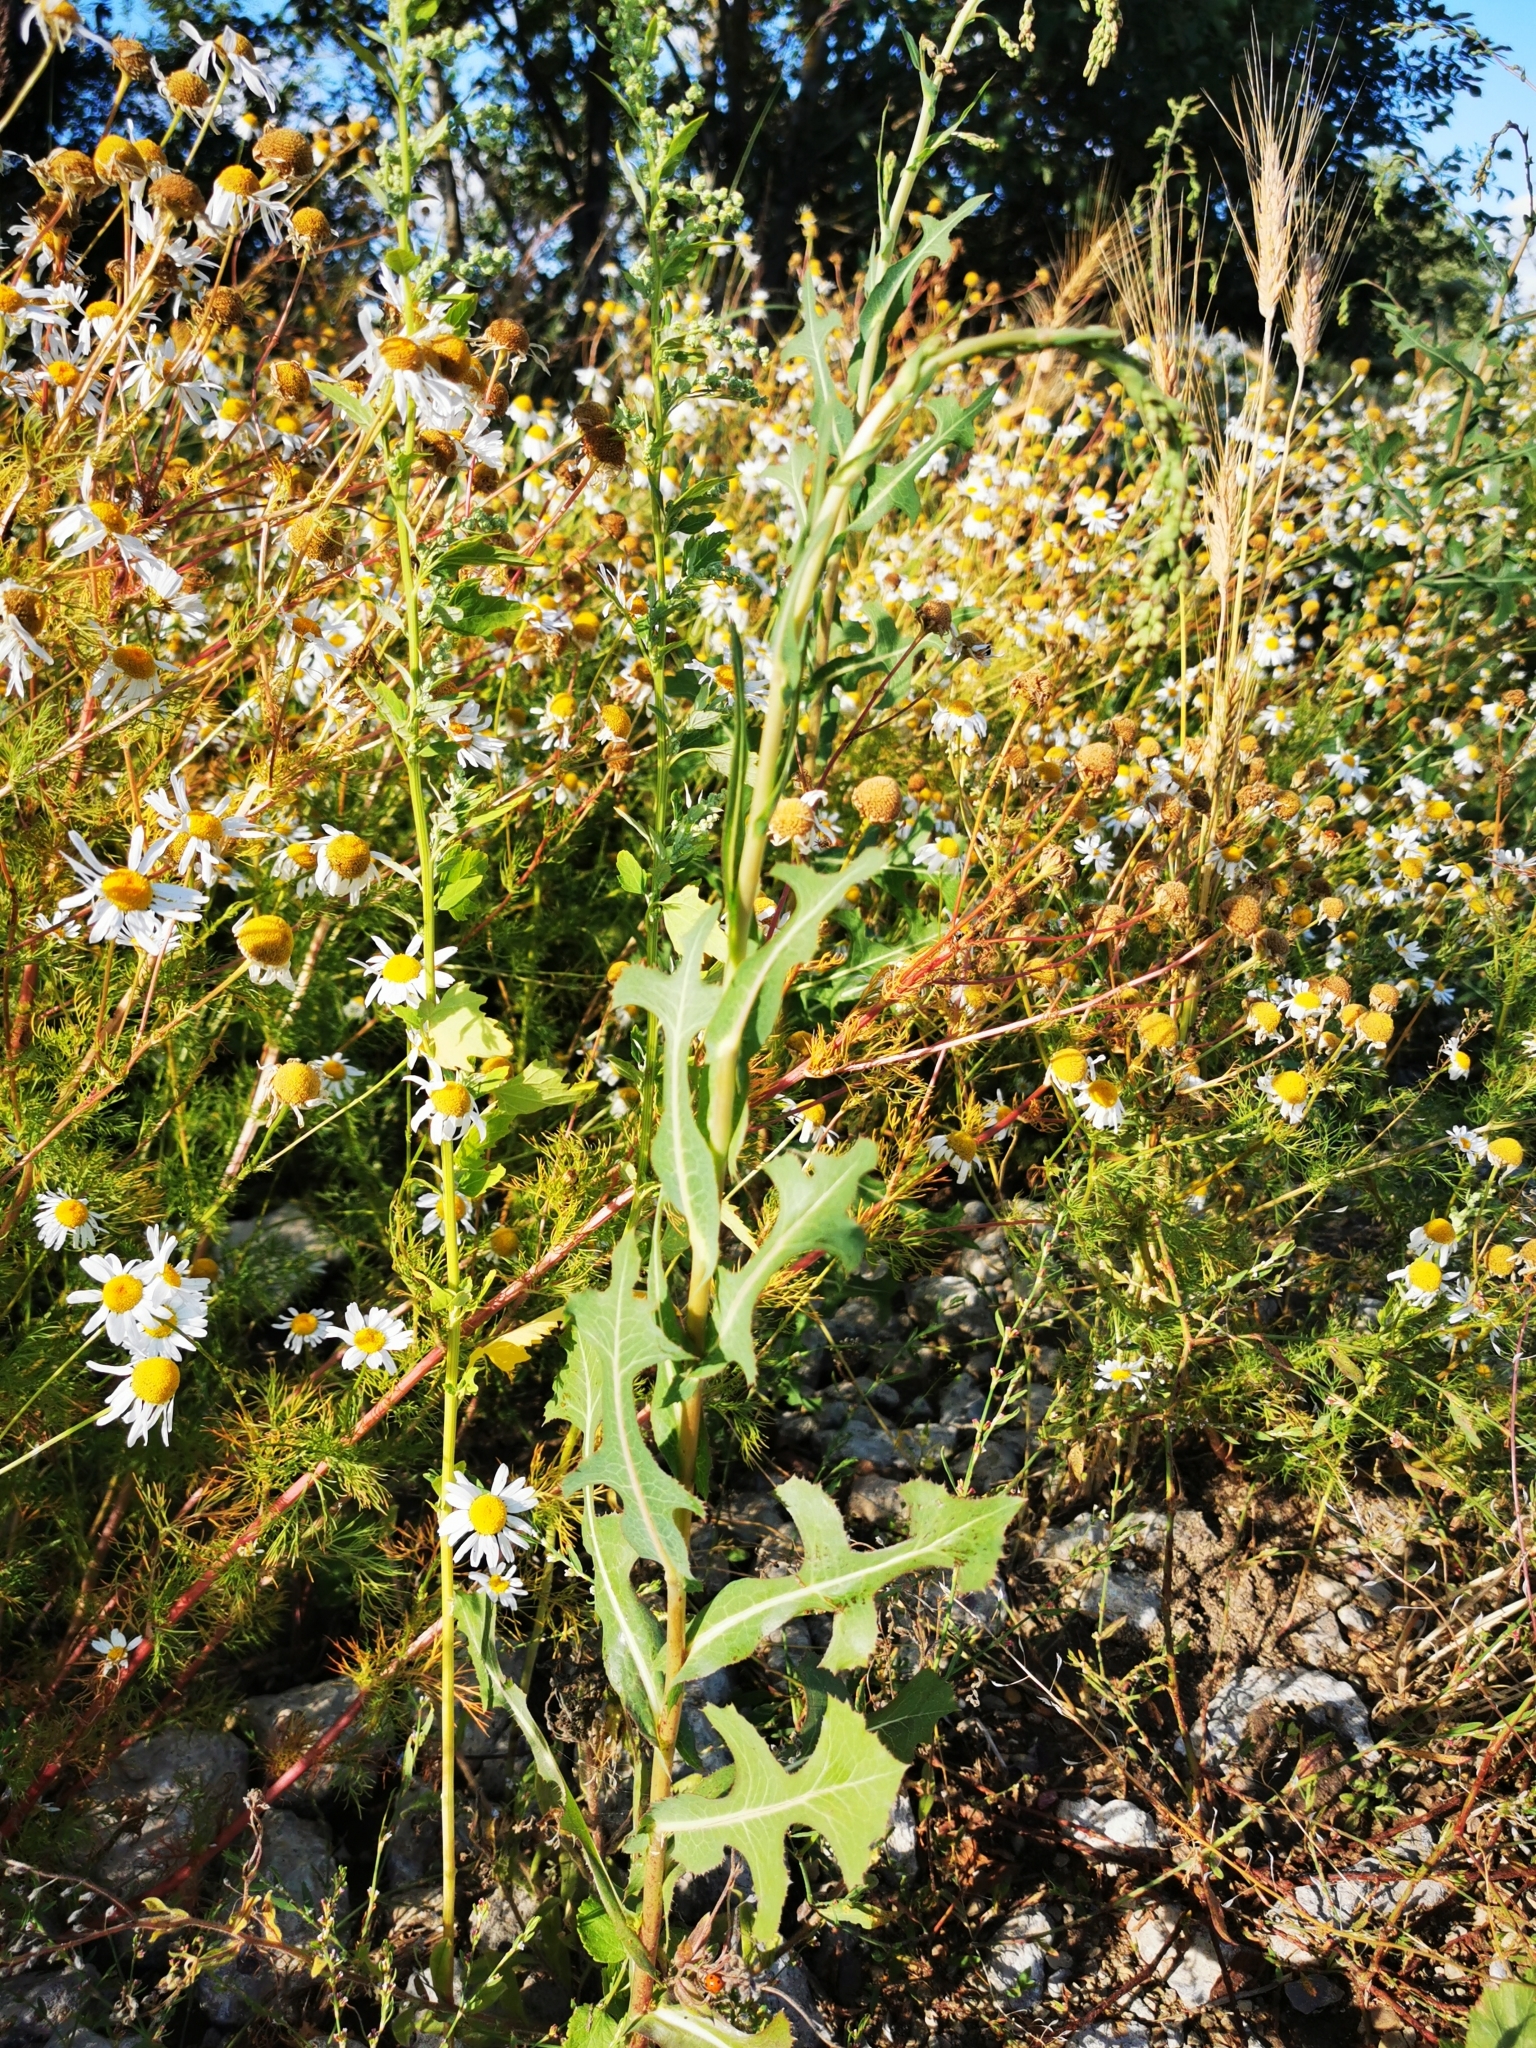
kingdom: Plantae
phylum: Tracheophyta
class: Magnoliopsida
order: Asterales
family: Asteraceae
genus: Lactuca
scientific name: Lactuca serriola
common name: Prickly lettuce
